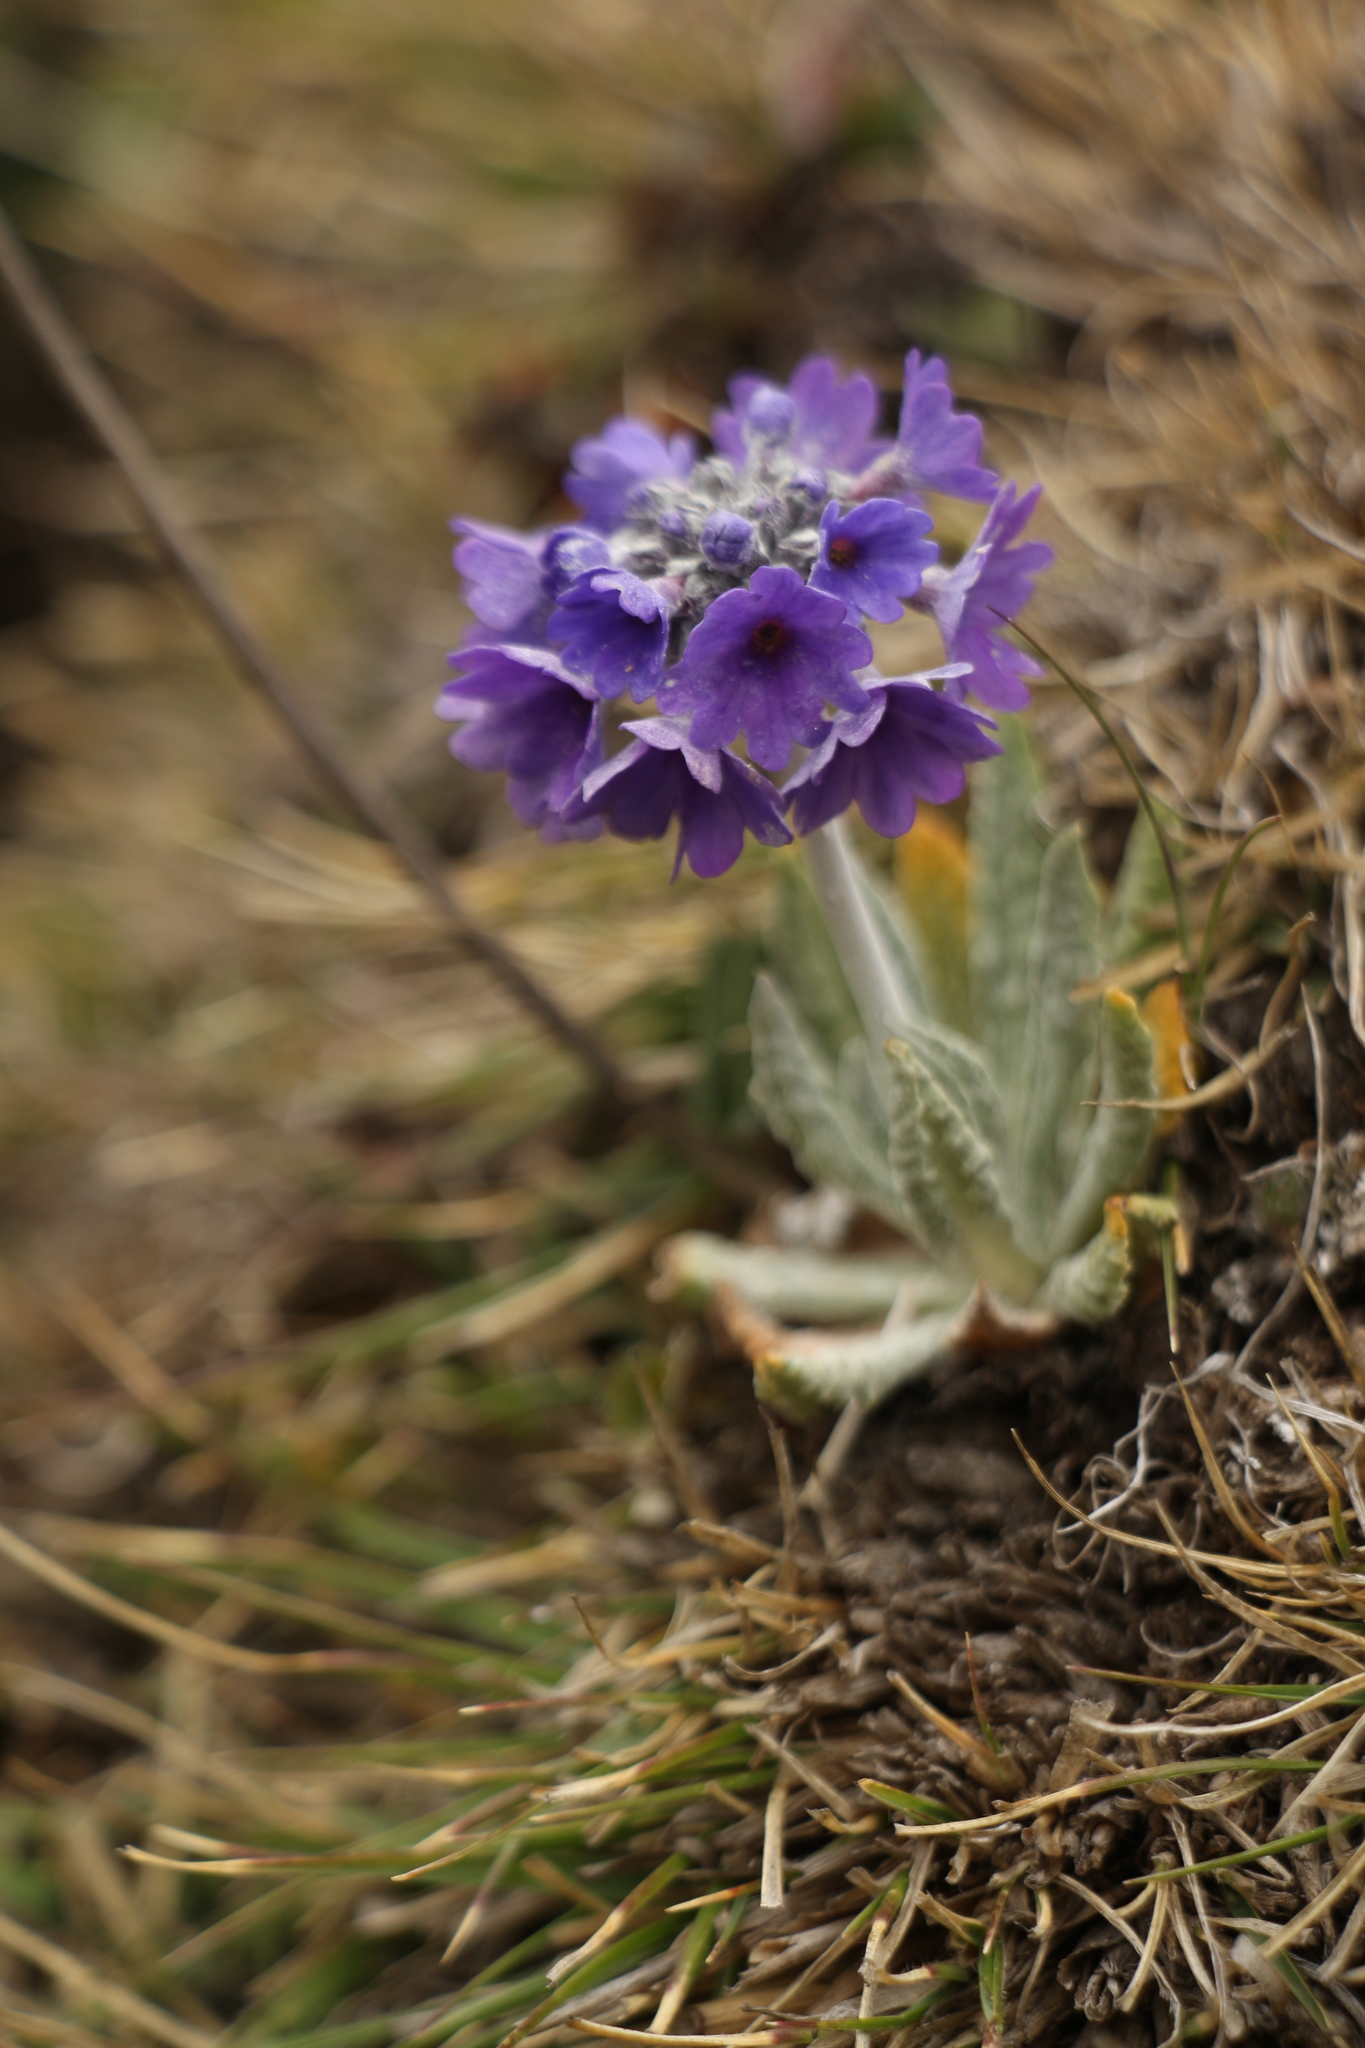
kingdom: Plantae
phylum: Tracheophyta
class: Magnoliopsida
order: Ericales
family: Primulaceae
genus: Primula
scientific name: Primula capitata
